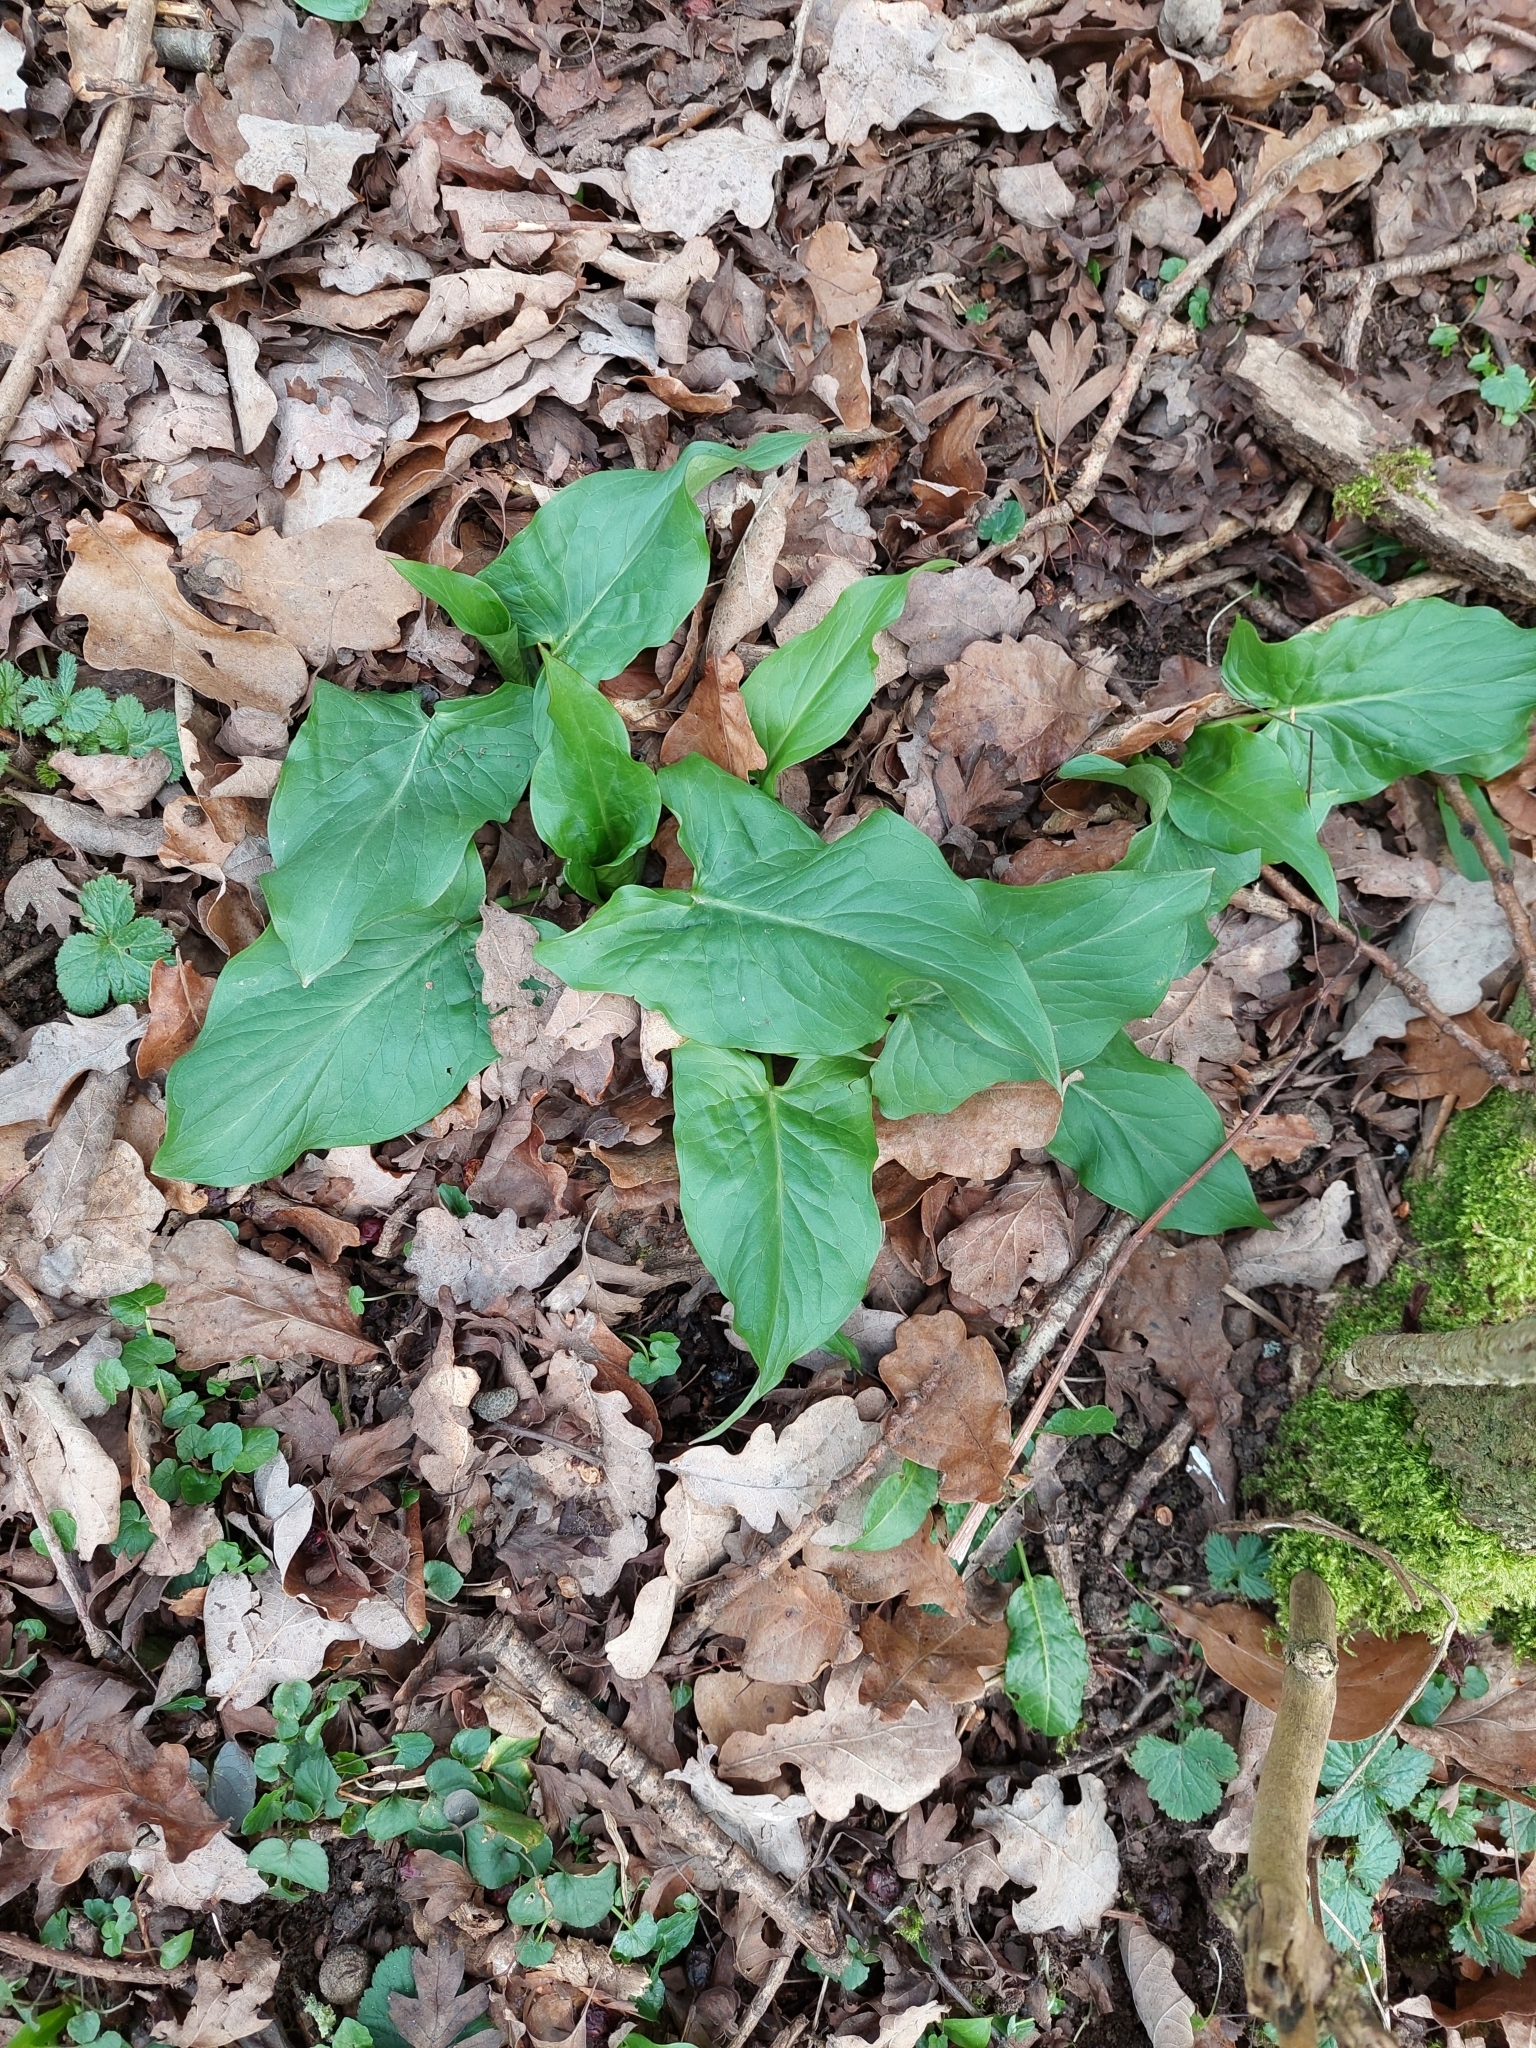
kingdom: Plantae
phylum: Tracheophyta
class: Liliopsida
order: Alismatales
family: Araceae
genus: Arum
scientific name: Arum maculatum
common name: Lords-and-ladies
